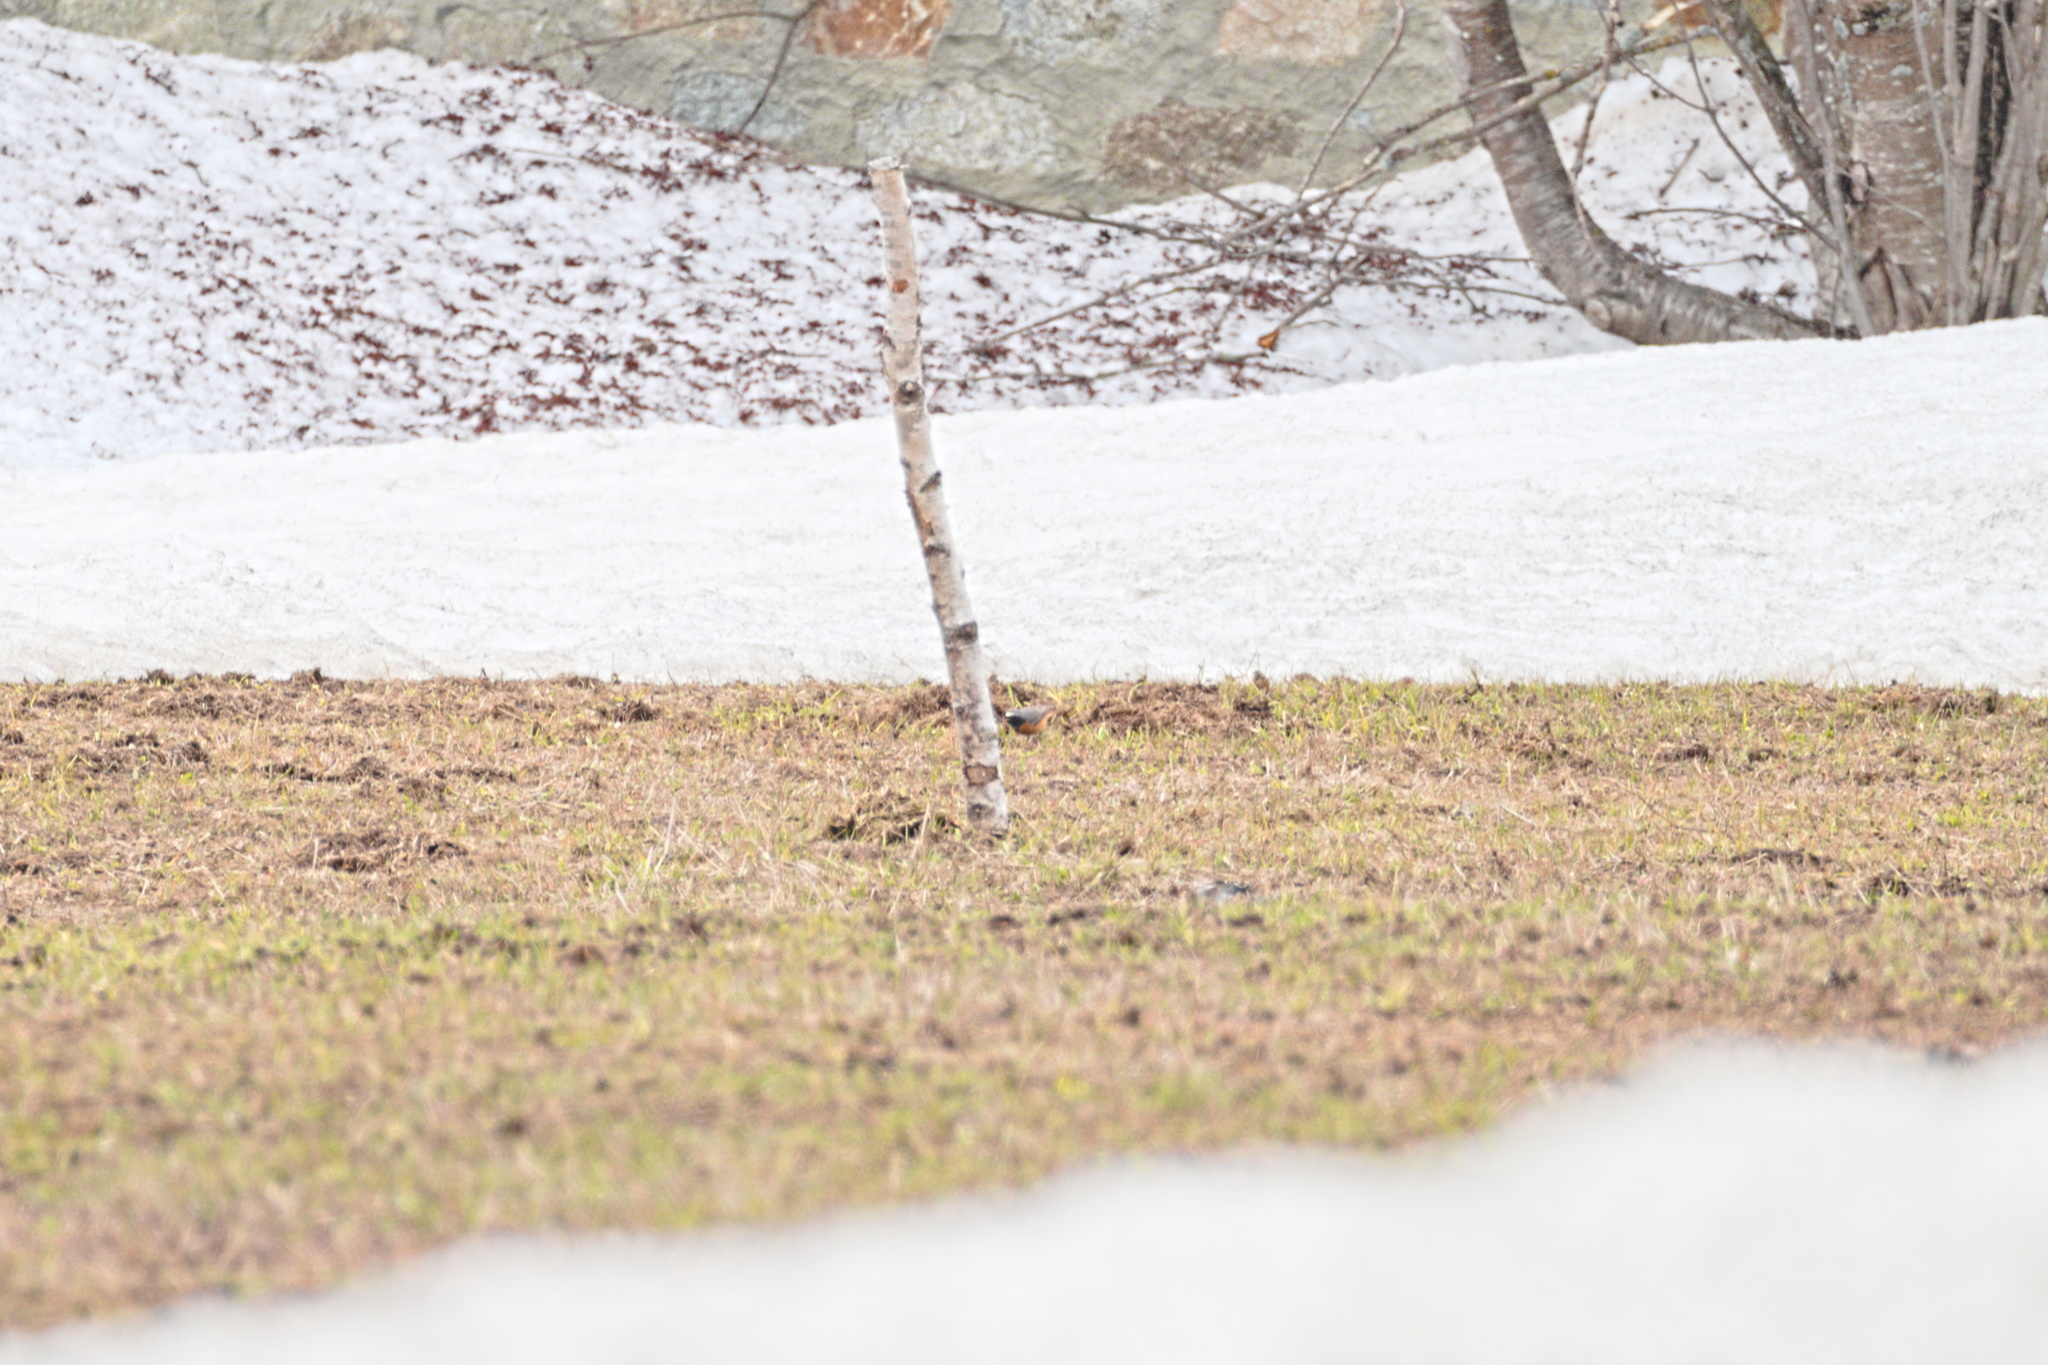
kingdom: Animalia
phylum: Chordata
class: Aves
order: Passeriformes
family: Muscicapidae
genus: Phoenicurus
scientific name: Phoenicurus phoenicurus
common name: Common redstart
